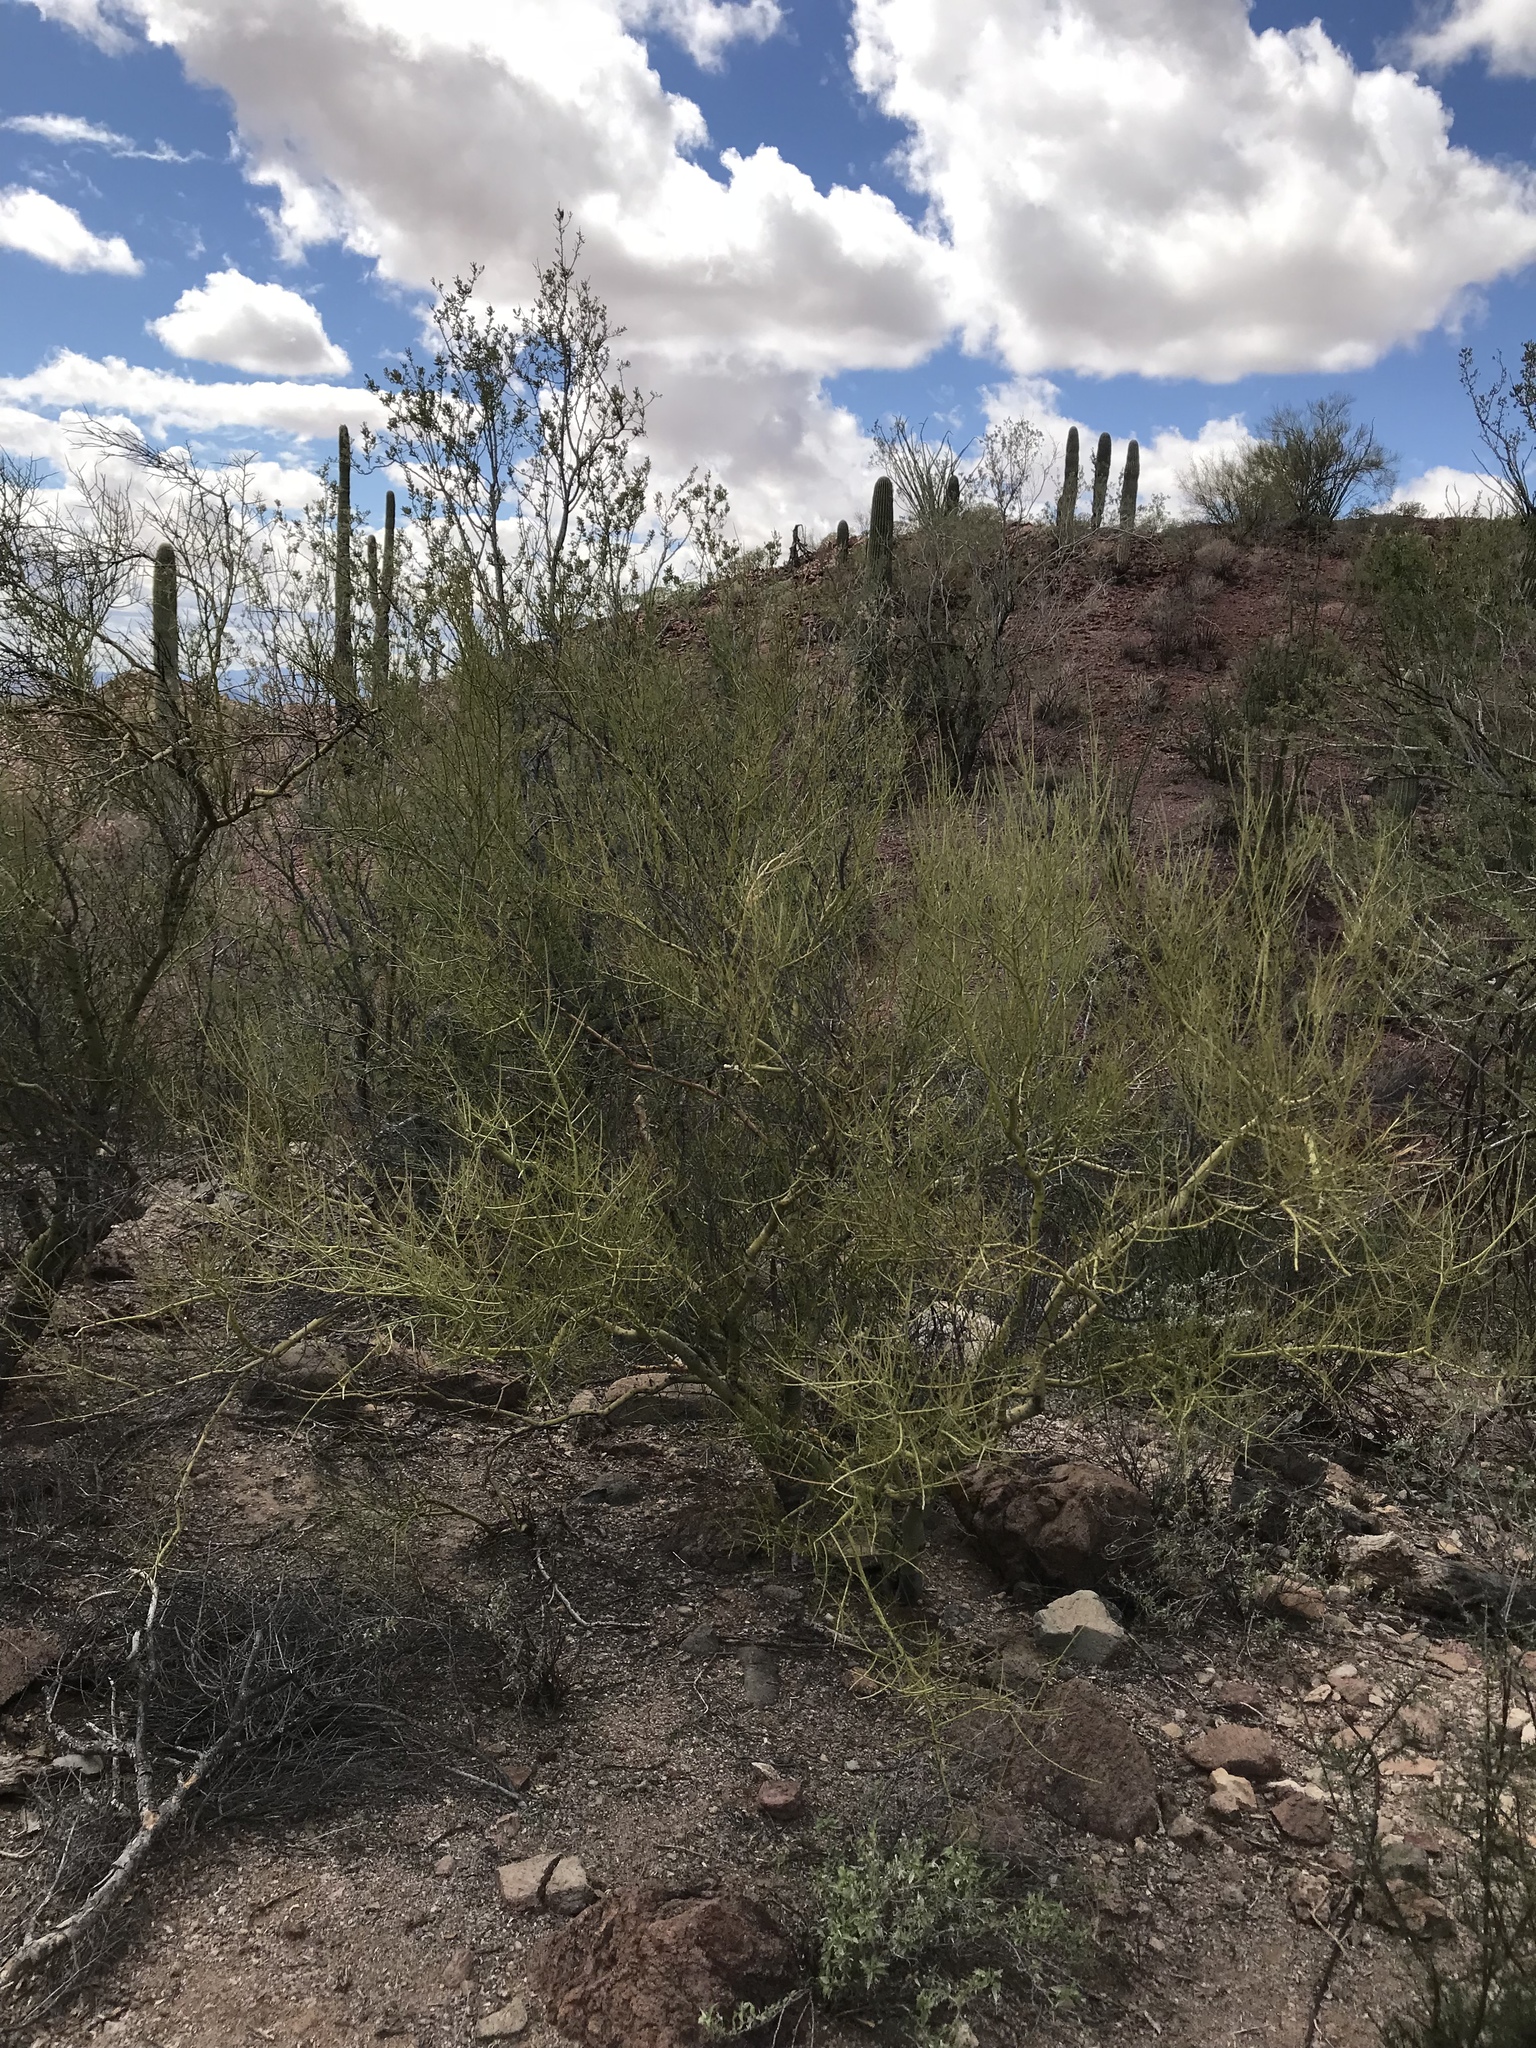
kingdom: Plantae
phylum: Tracheophyta
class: Magnoliopsida
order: Fabales
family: Fabaceae
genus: Parkinsonia
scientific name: Parkinsonia microphylla
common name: Yellow paloverde
